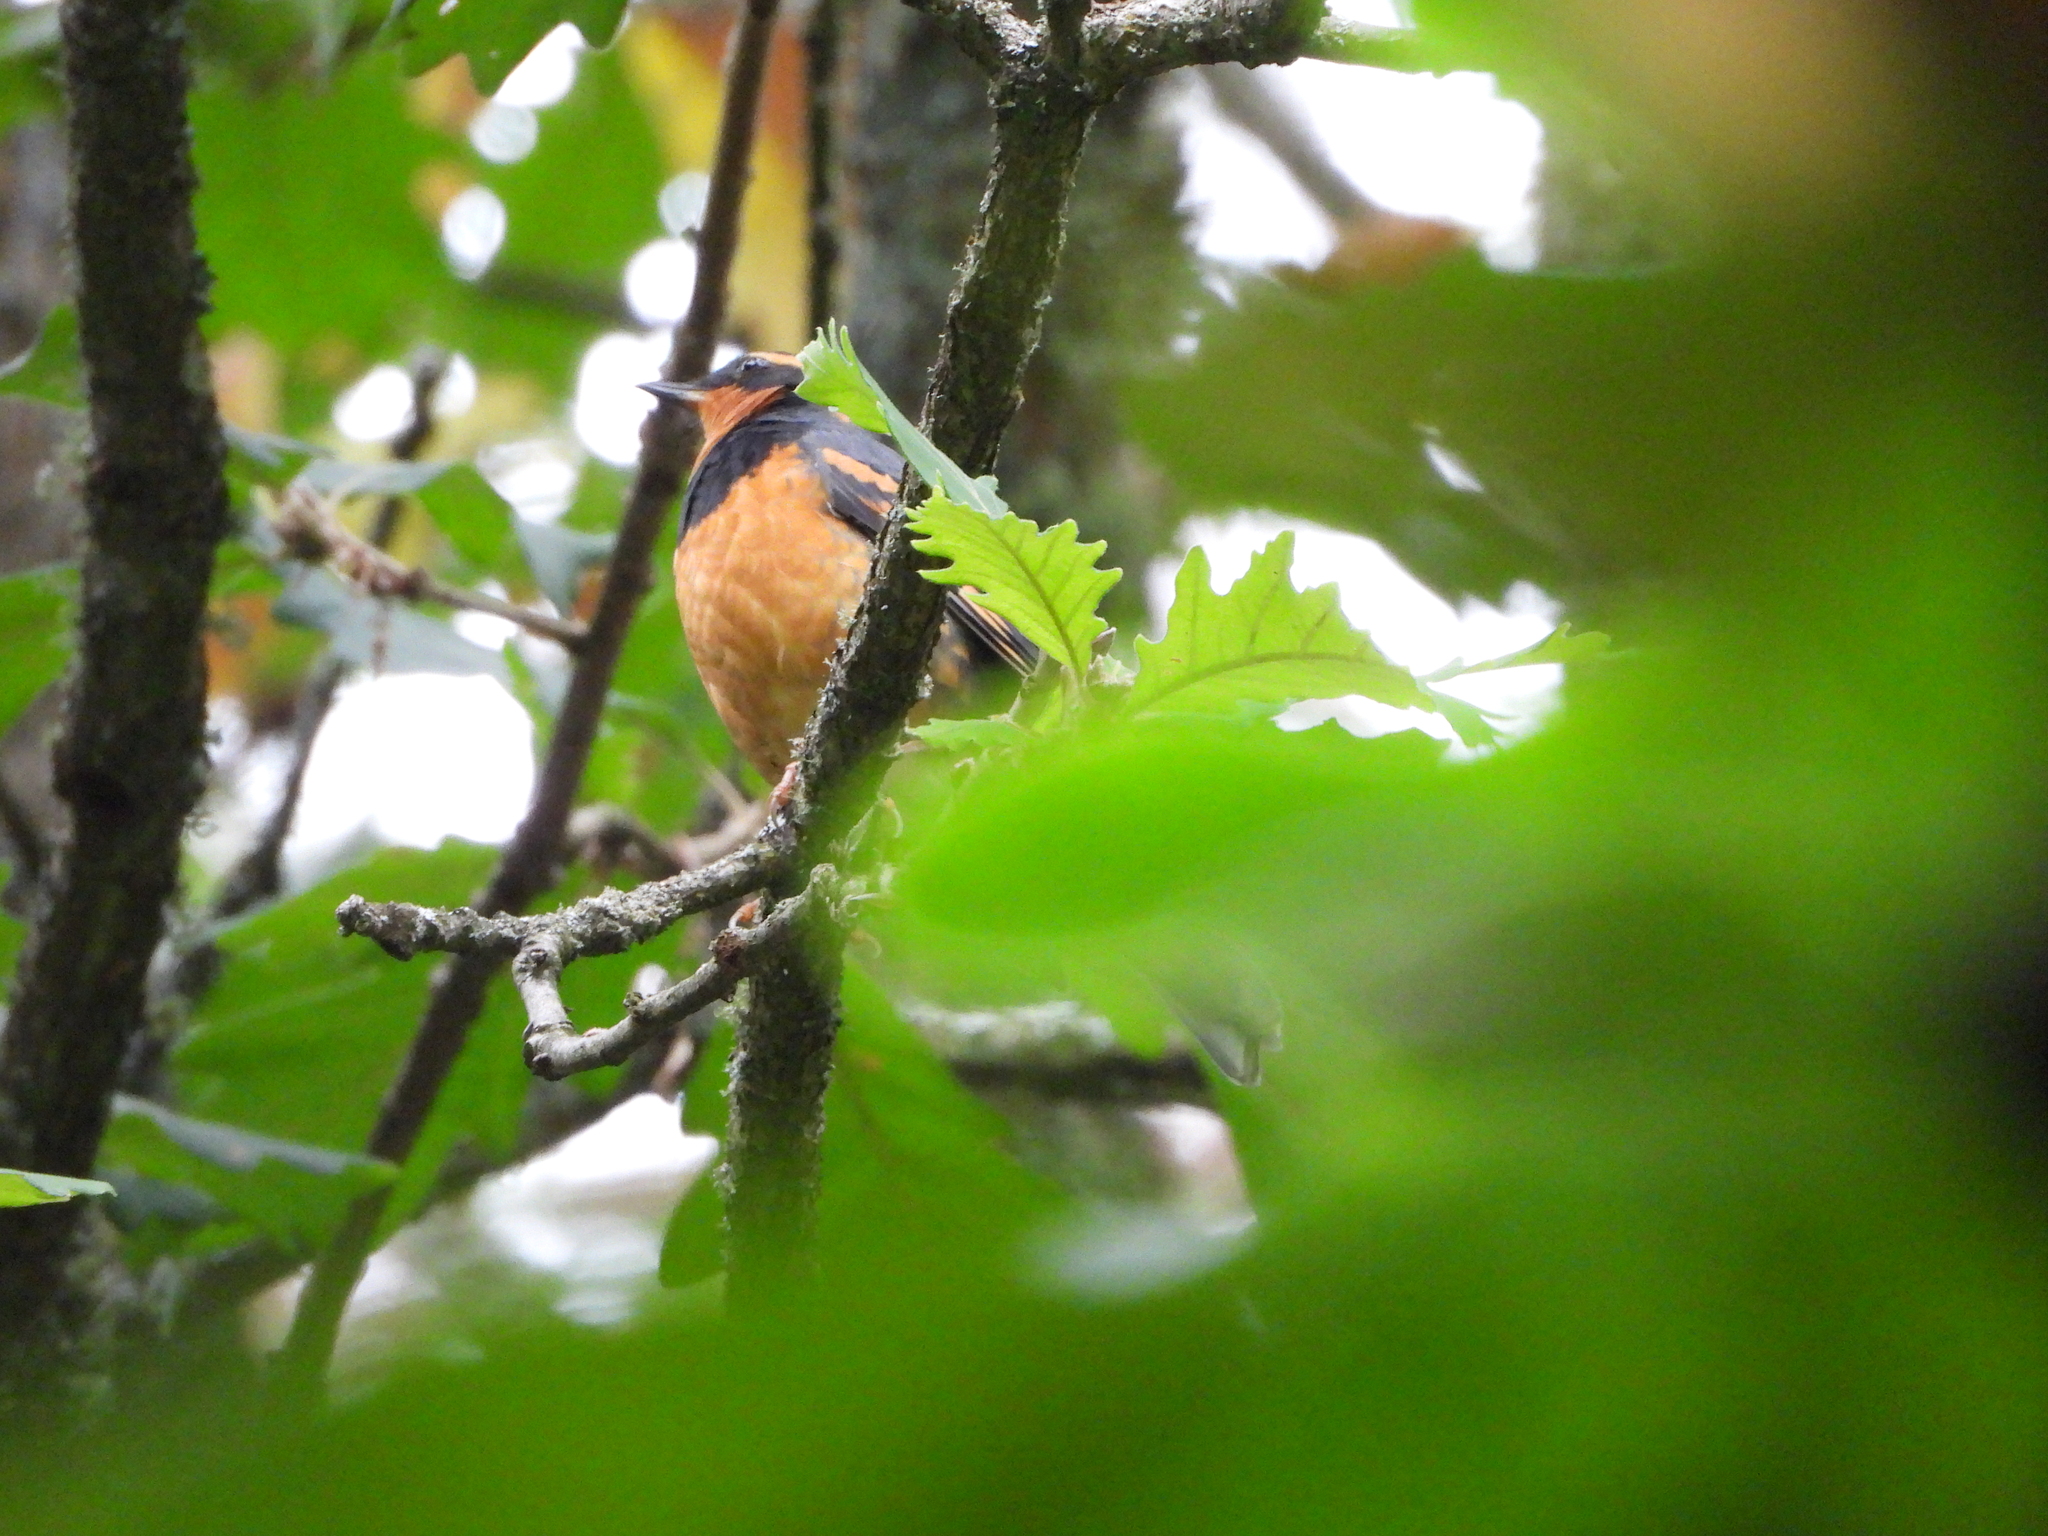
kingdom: Animalia
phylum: Chordata
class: Aves
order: Passeriformes
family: Turdidae
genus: Ixoreus
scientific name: Ixoreus naevius
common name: Varied thrush
